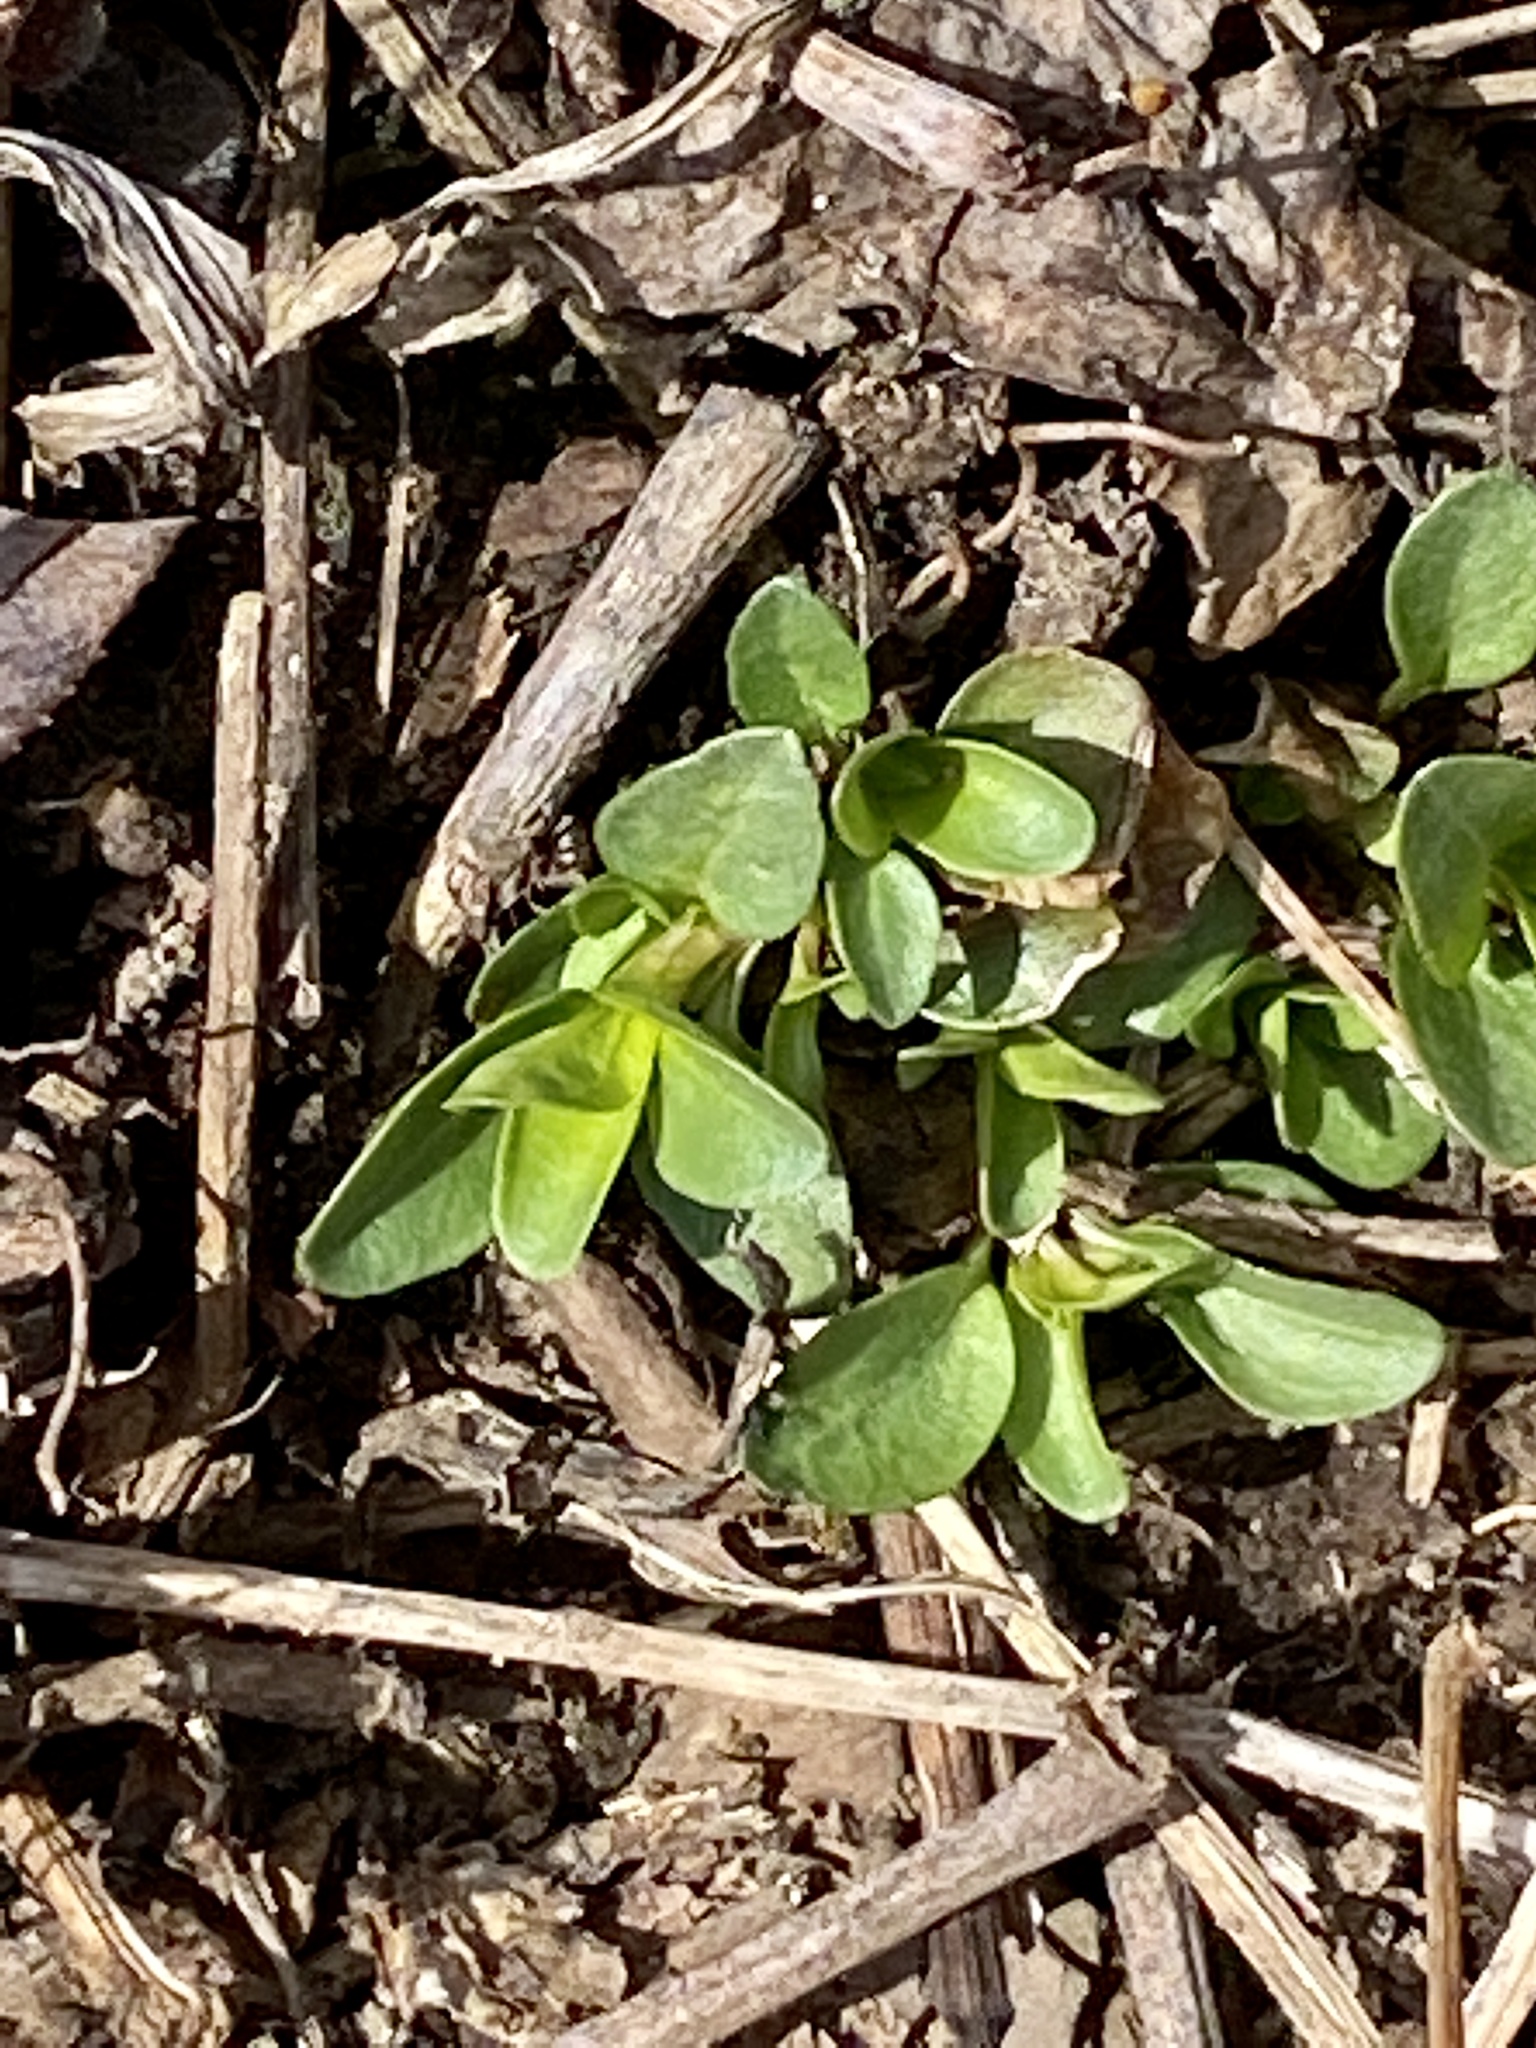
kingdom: Plantae
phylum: Tracheophyta
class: Magnoliopsida
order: Lamiales
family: Plantaginaceae
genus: Veronica
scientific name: Veronica serpyllifolia
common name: Thyme-leaved speedwell
